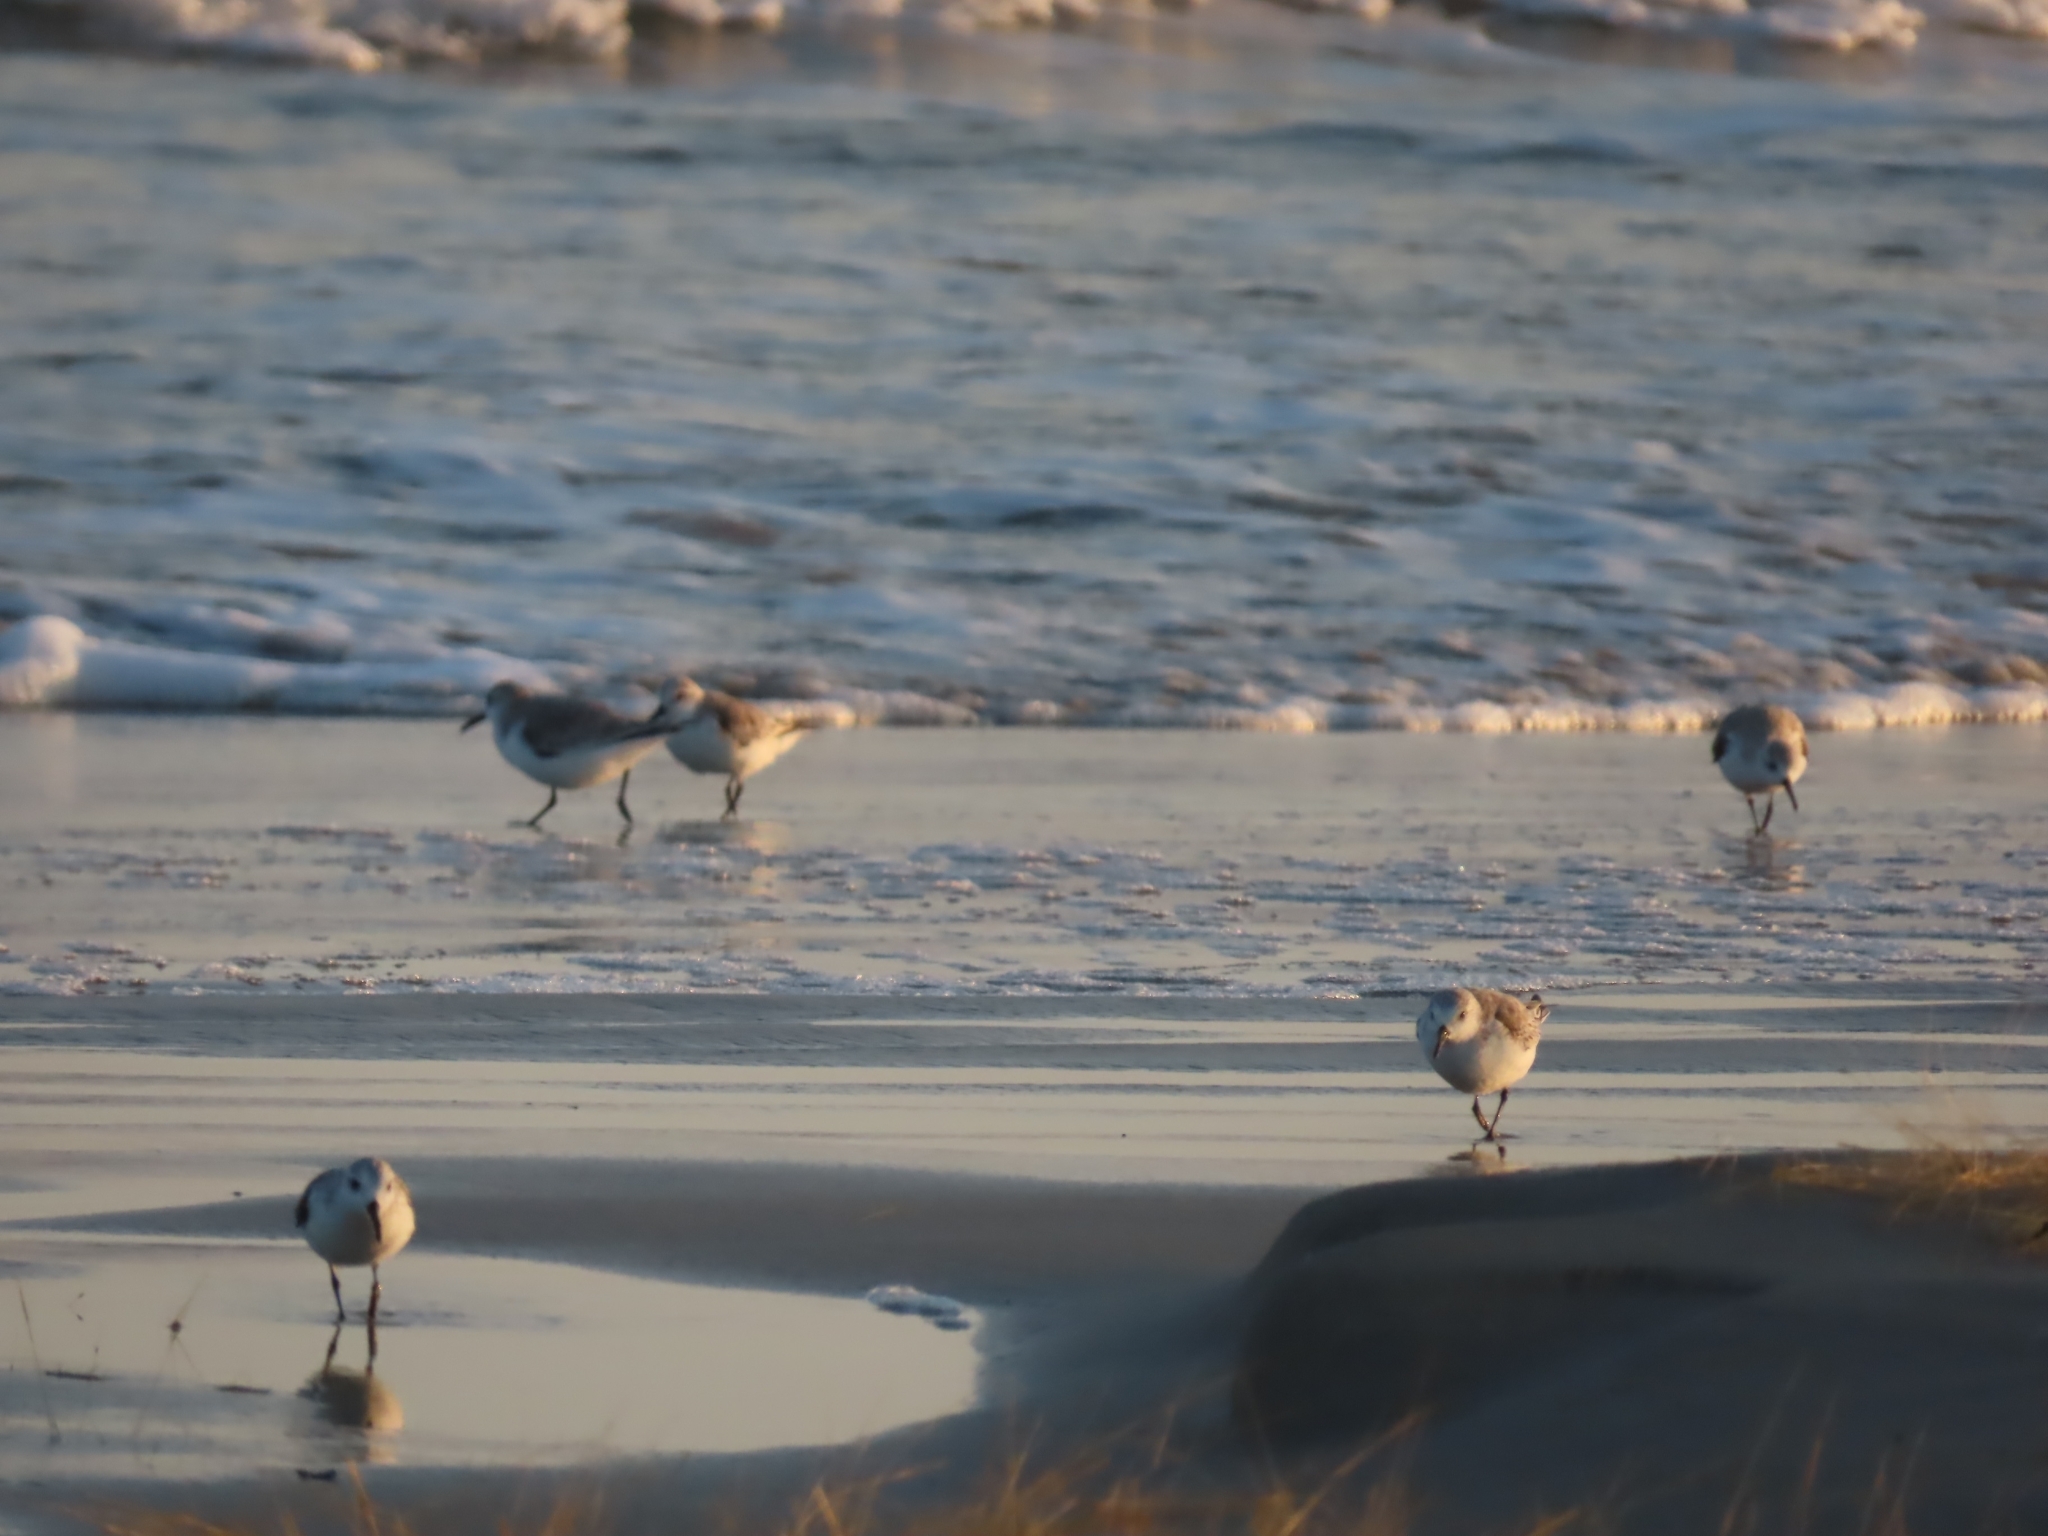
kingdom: Animalia
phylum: Chordata
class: Aves
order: Charadriiformes
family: Scolopacidae
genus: Calidris
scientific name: Calidris alba
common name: Sanderling
